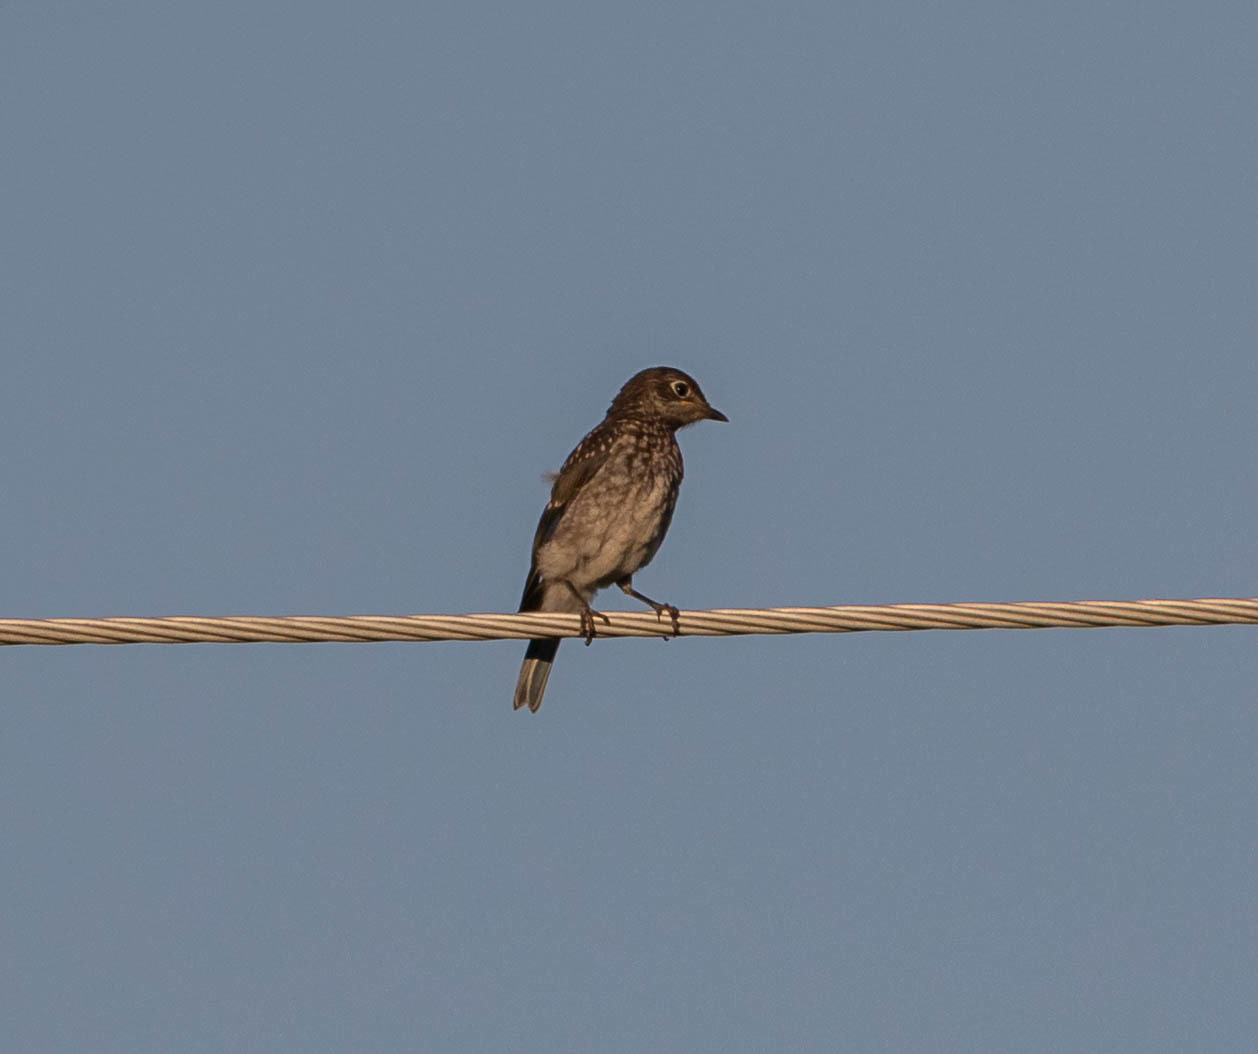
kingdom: Animalia
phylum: Chordata
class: Aves
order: Passeriformes
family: Turdidae
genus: Sialia
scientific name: Sialia sialis
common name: Eastern bluebird
